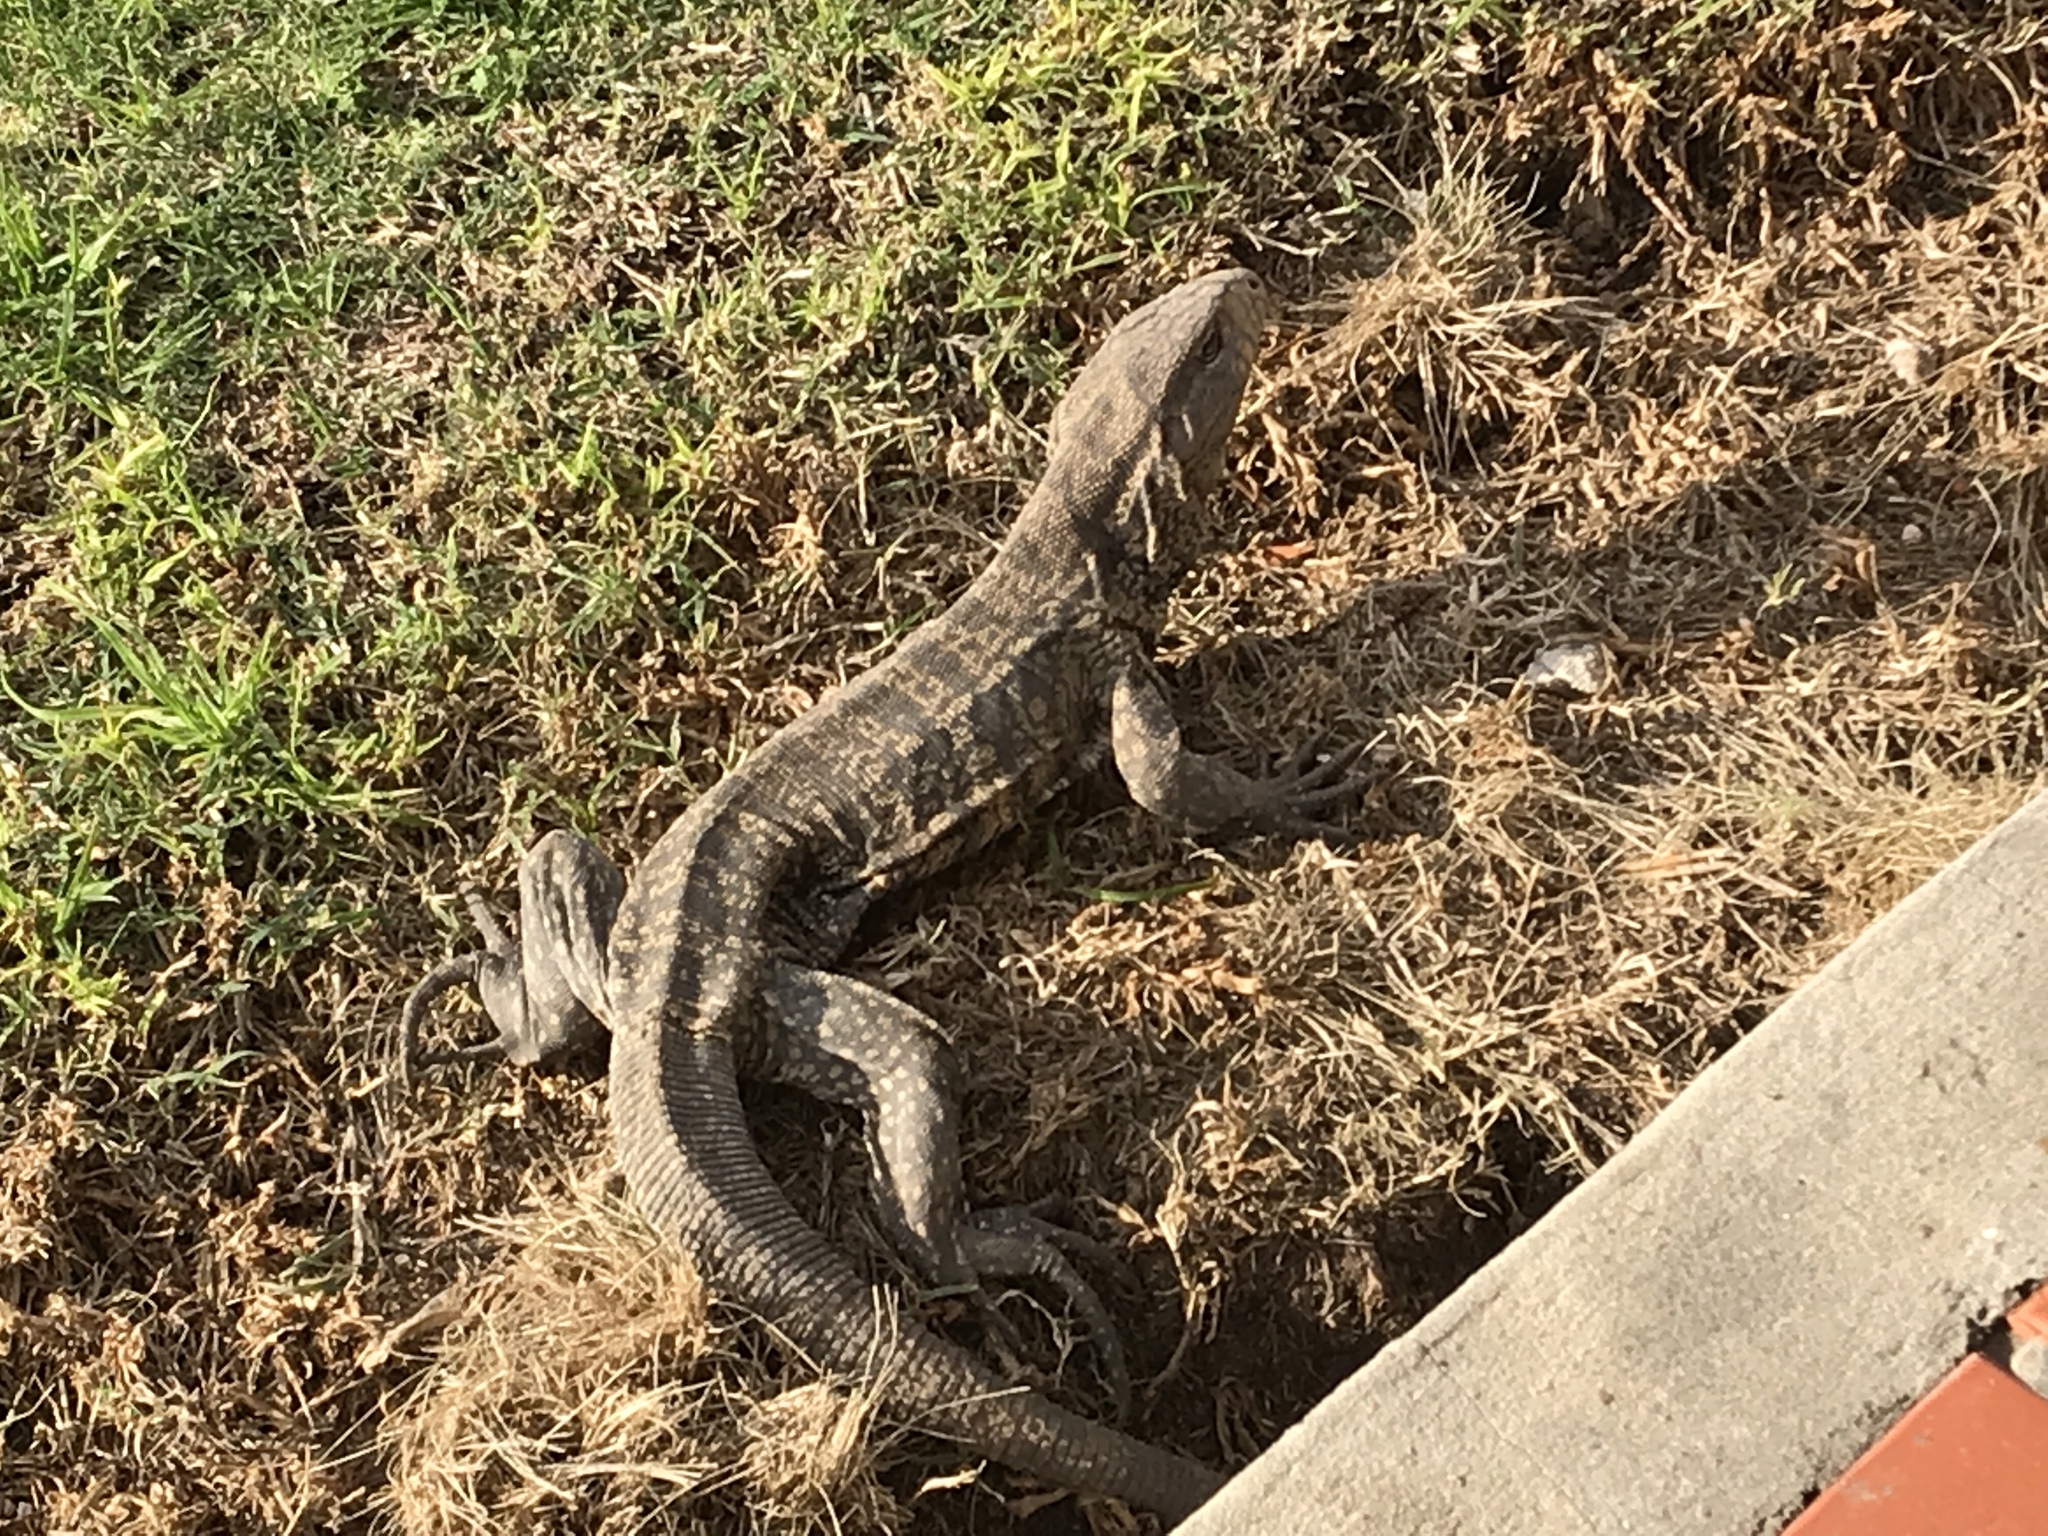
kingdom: Animalia
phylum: Chordata
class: Squamata
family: Teiidae
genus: Salvator
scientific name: Salvator merianae
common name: Argentine black and white tegu
